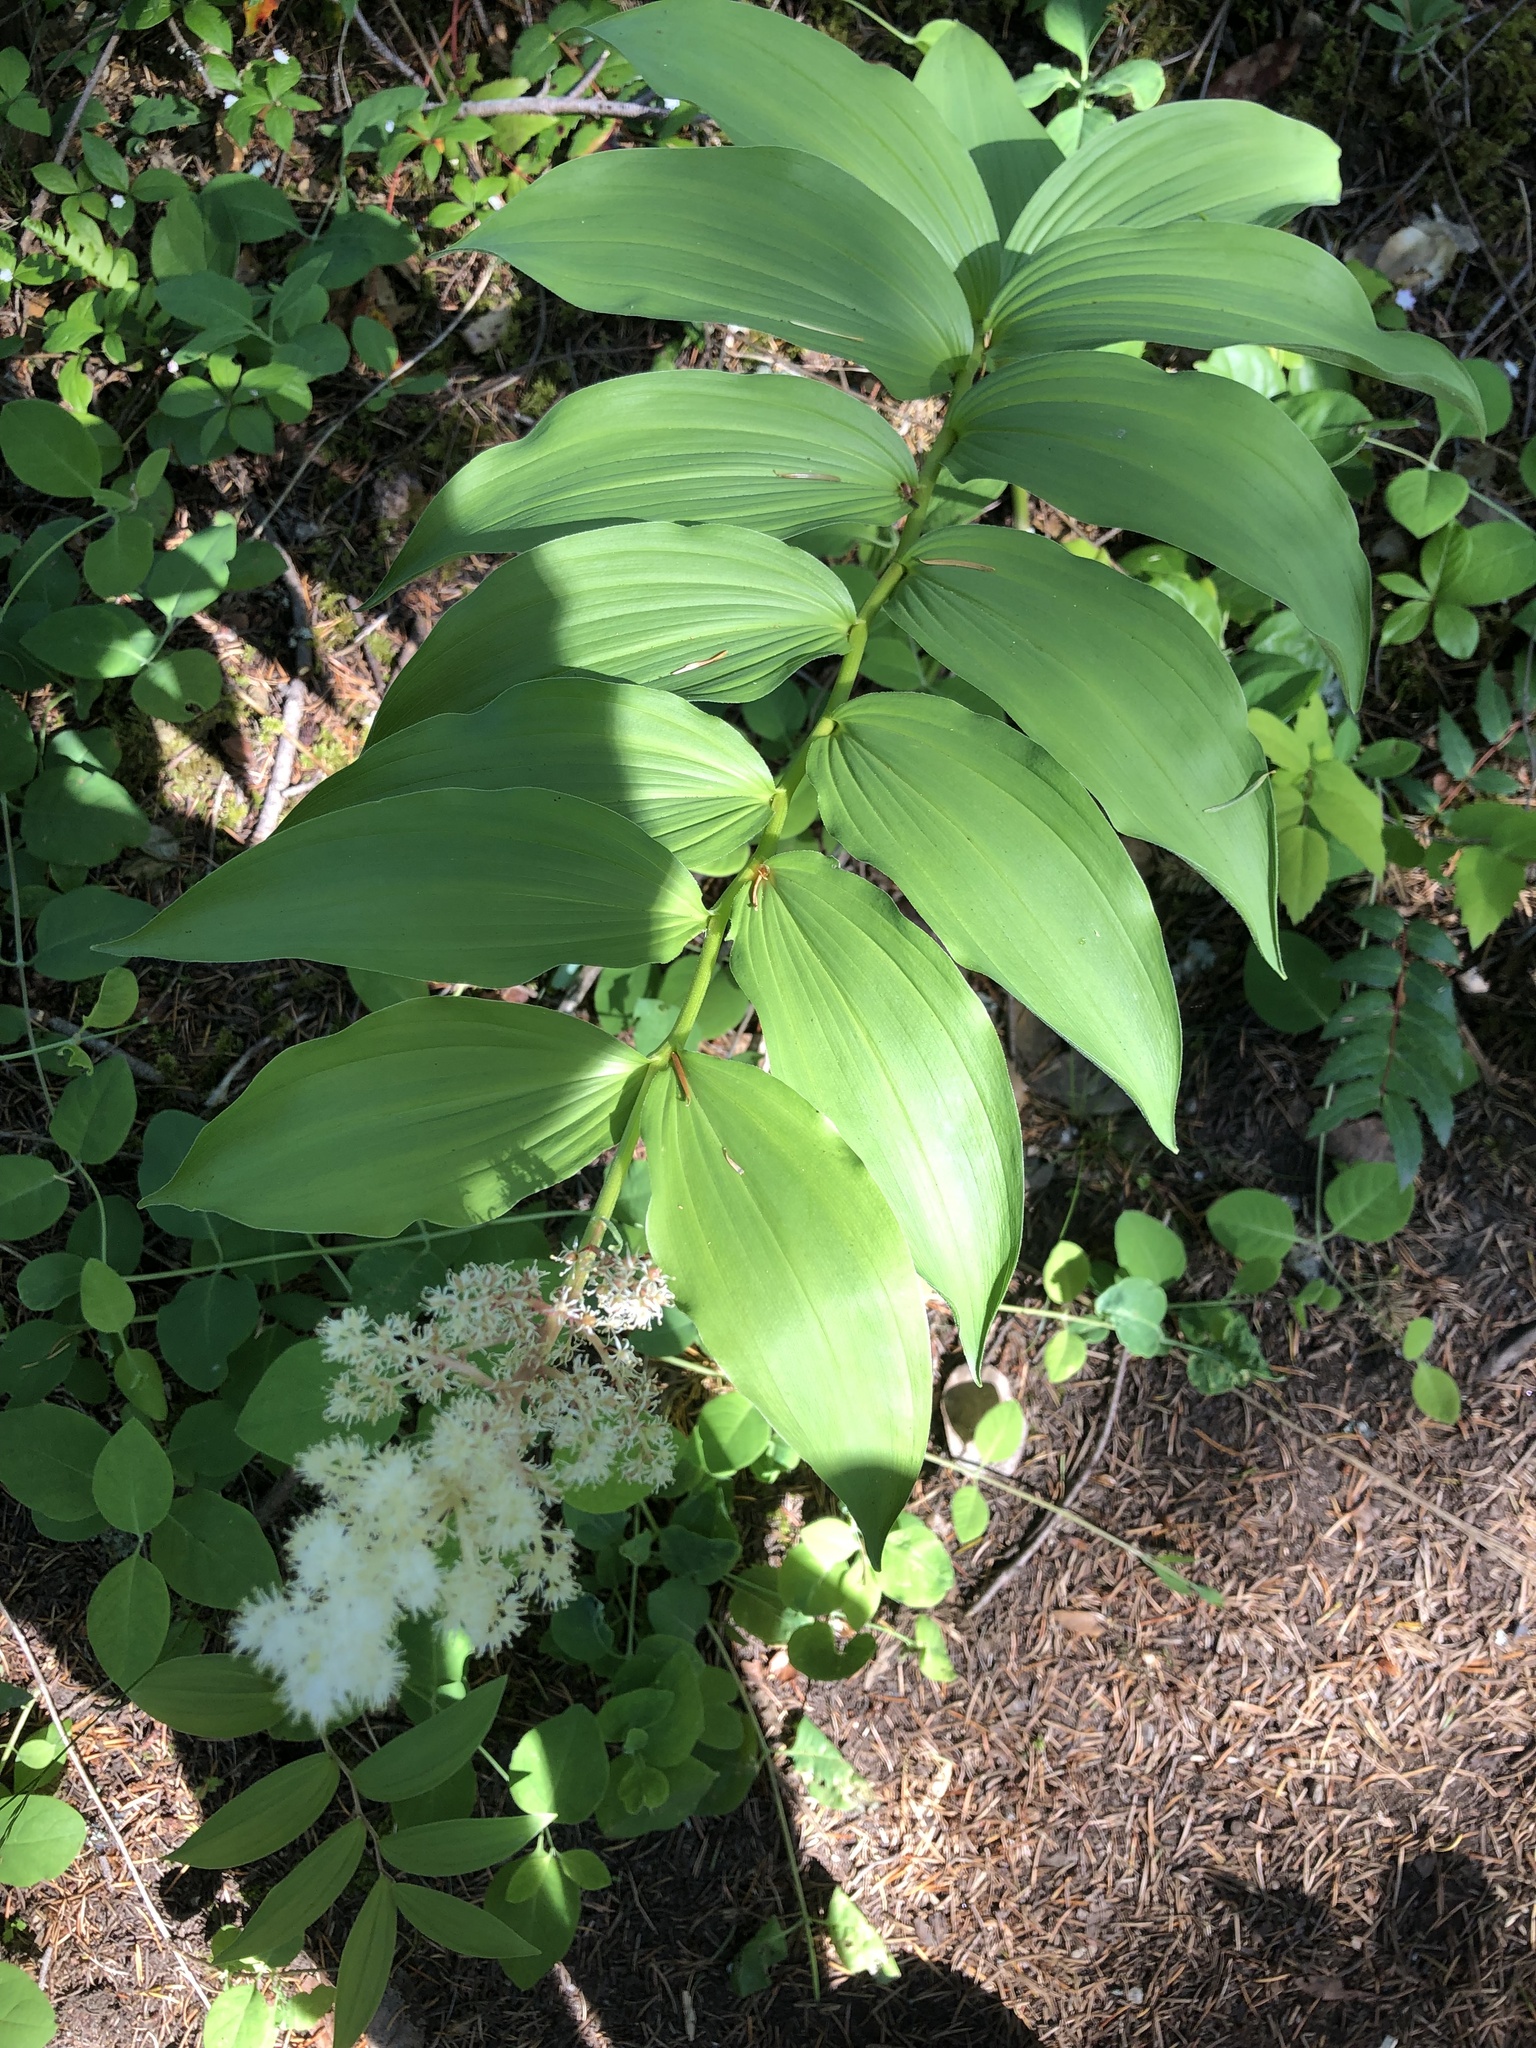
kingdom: Plantae
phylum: Tracheophyta
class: Liliopsida
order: Asparagales
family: Asparagaceae
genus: Maianthemum
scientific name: Maianthemum racemosum
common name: False spikenard
